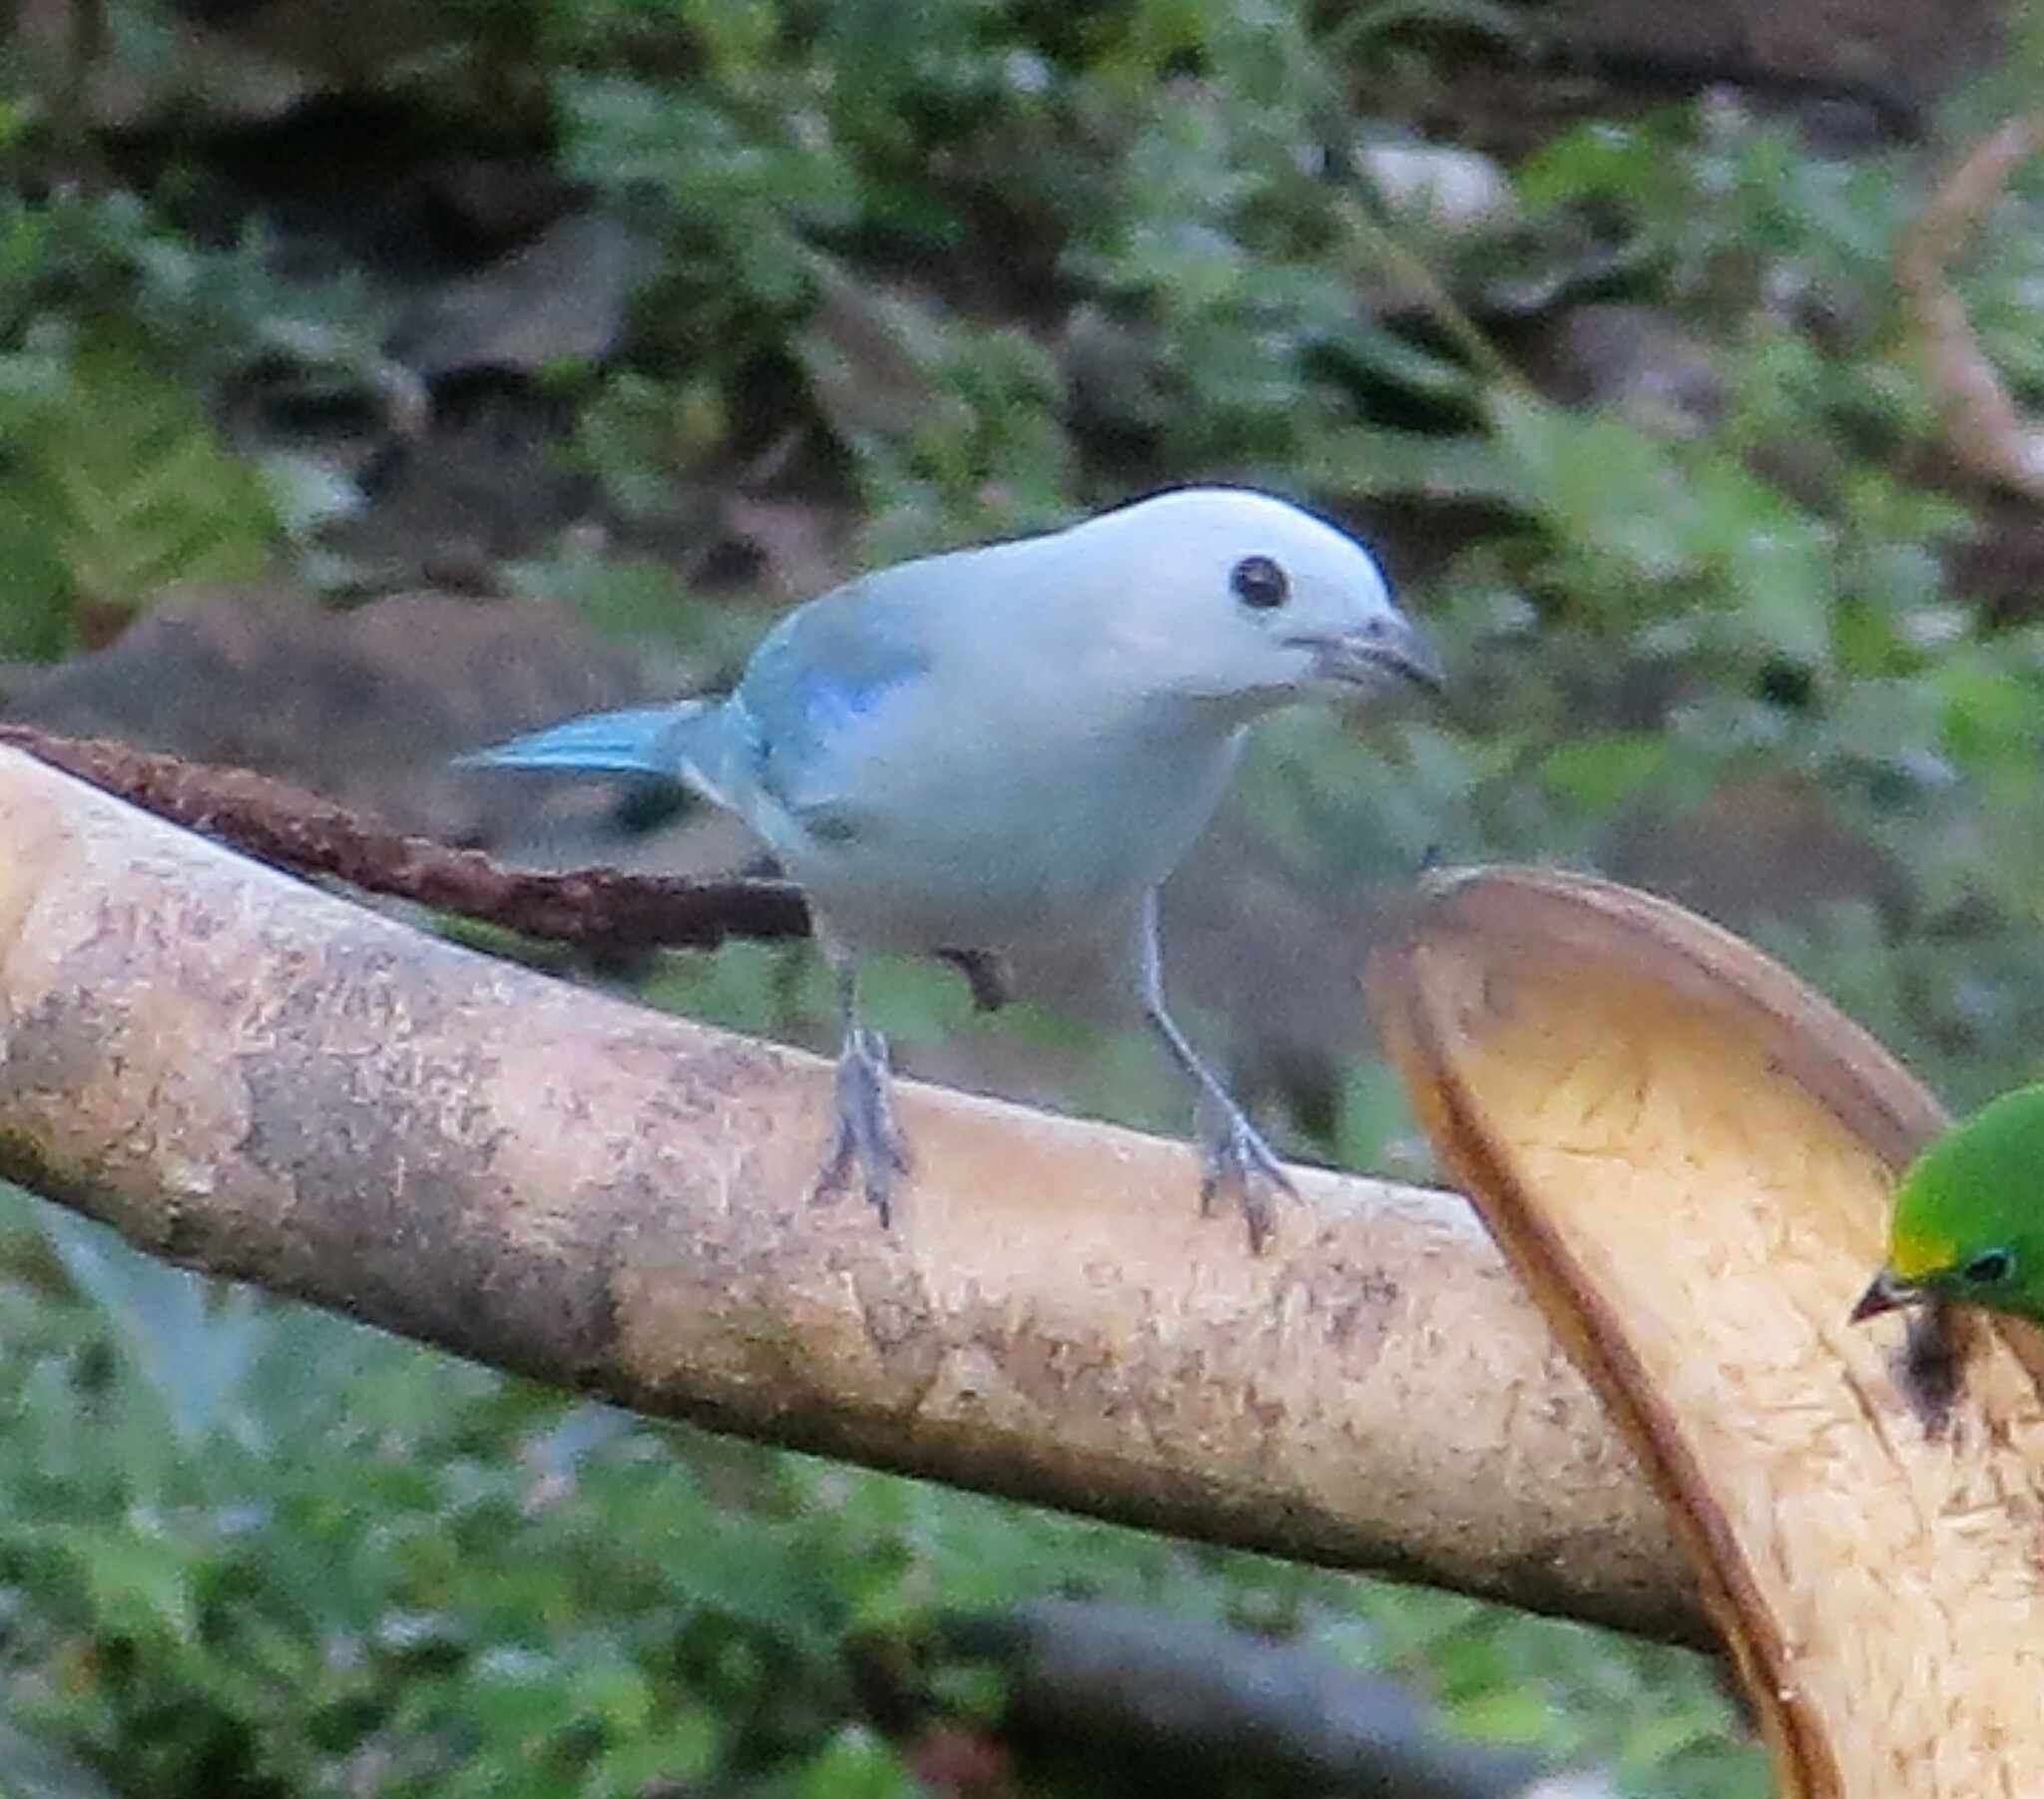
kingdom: Animalia
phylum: Chordata
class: Aves
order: Passeriformes
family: Thraupidae
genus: Thraupis
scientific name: Thraupis episcopus
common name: Blue-grey tanager
